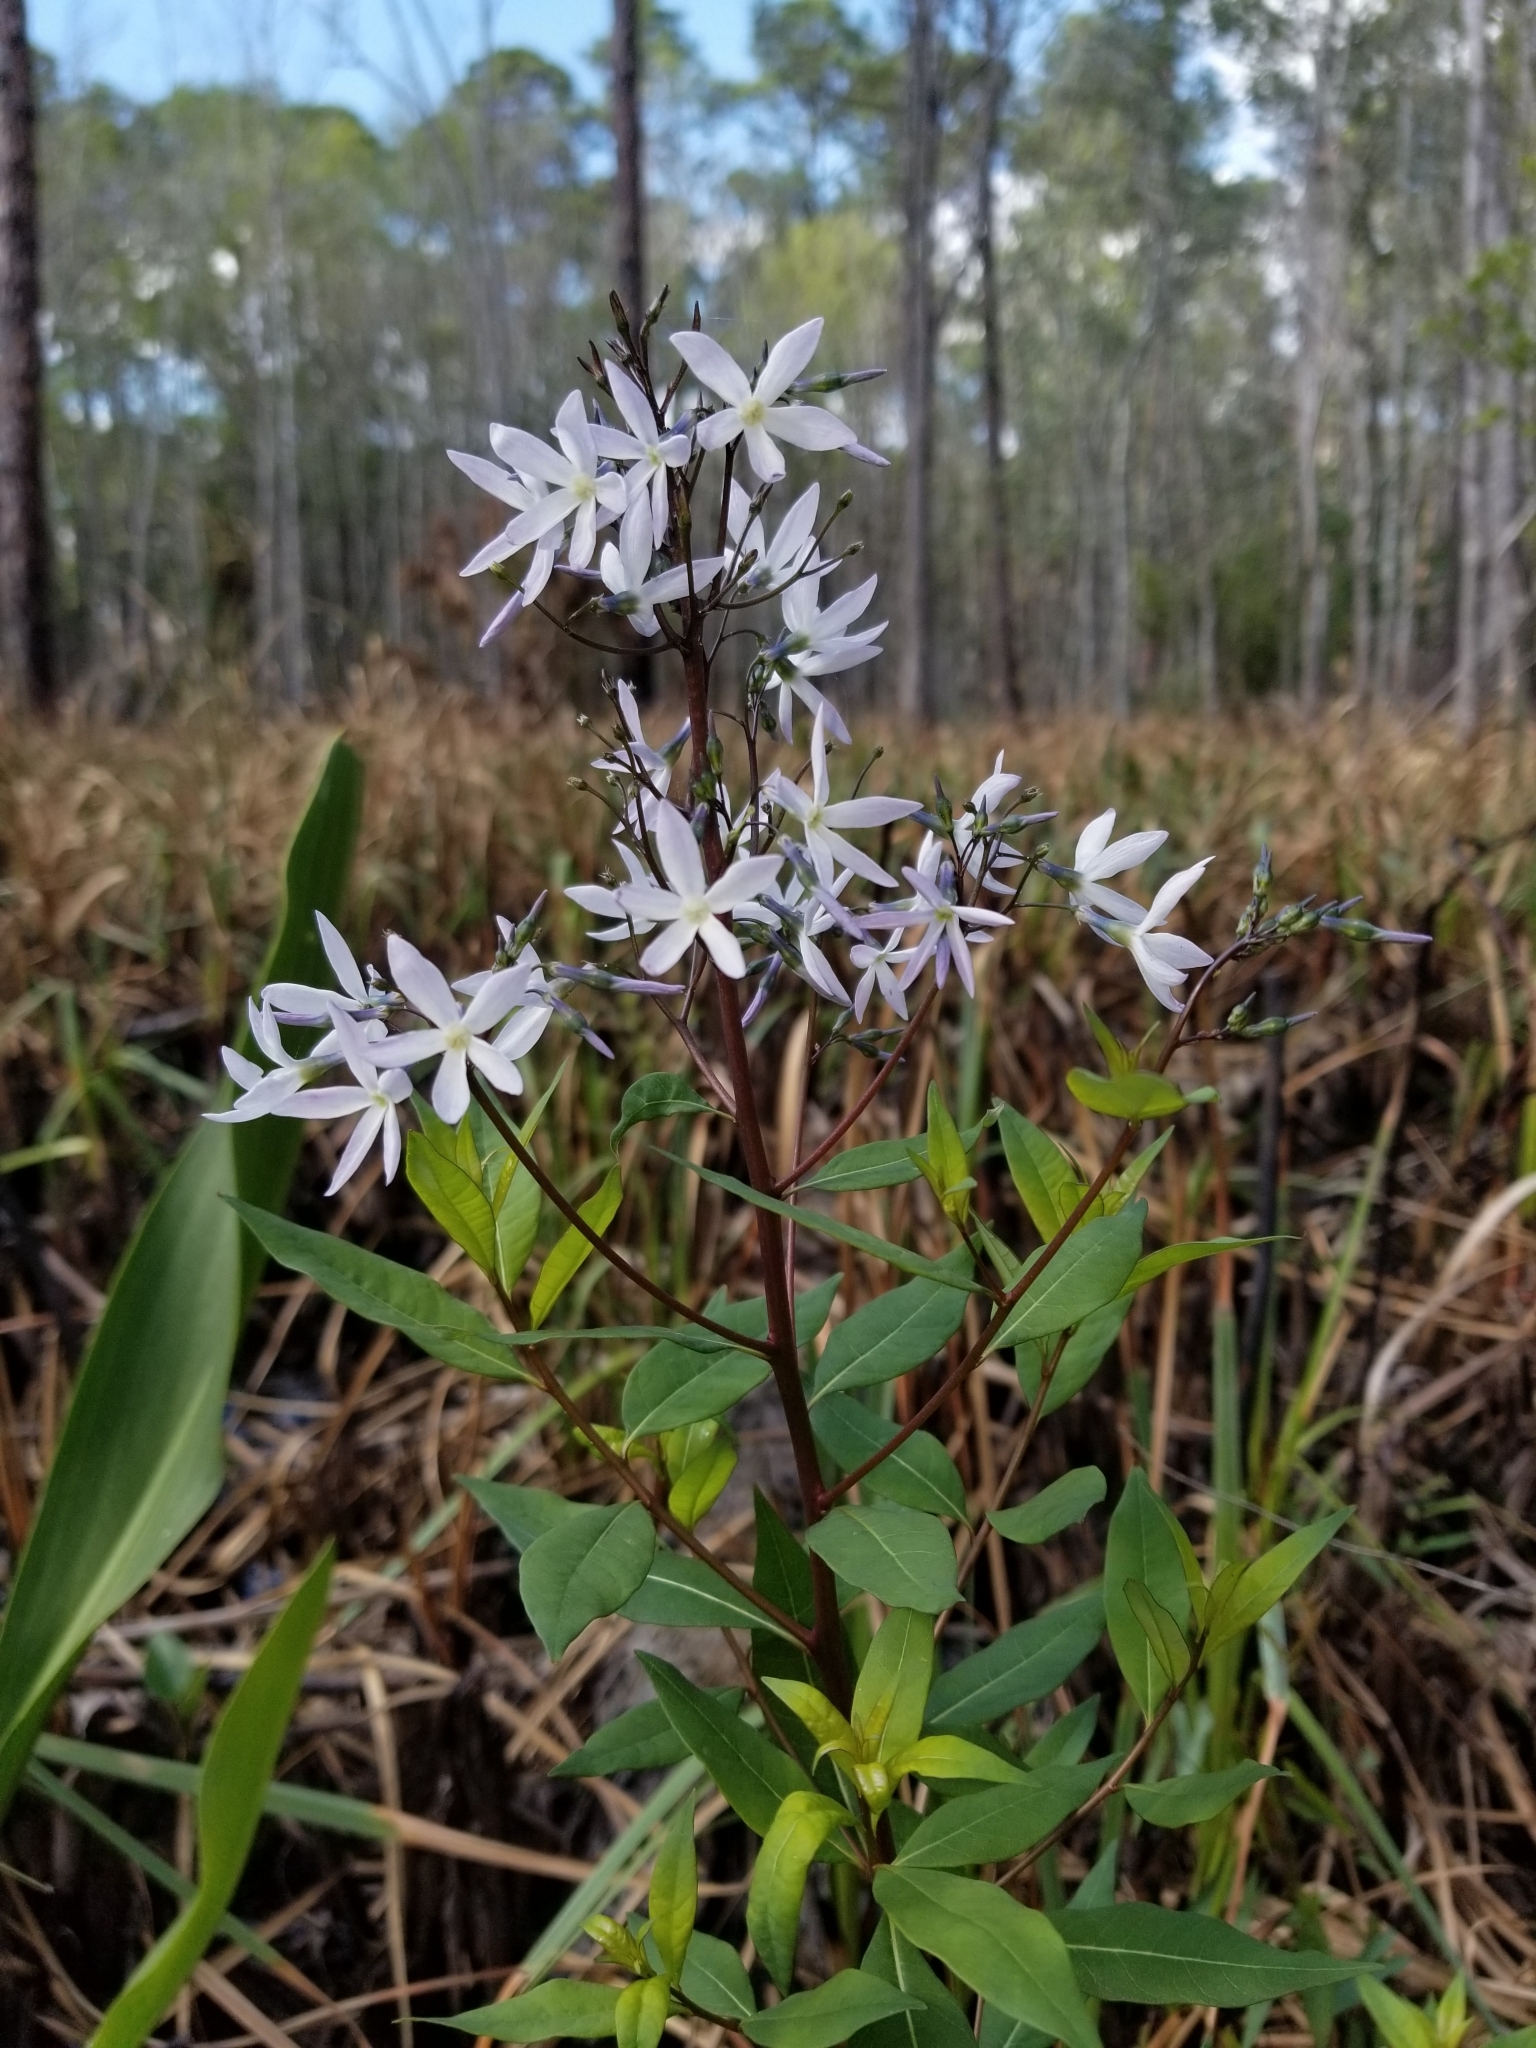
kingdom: Plantae
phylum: Tracheophyta
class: Magnoliopsida
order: Gentianales
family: Apocynaceae
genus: Amsonia
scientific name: Amsonia tabernaemontana
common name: Texas-star
